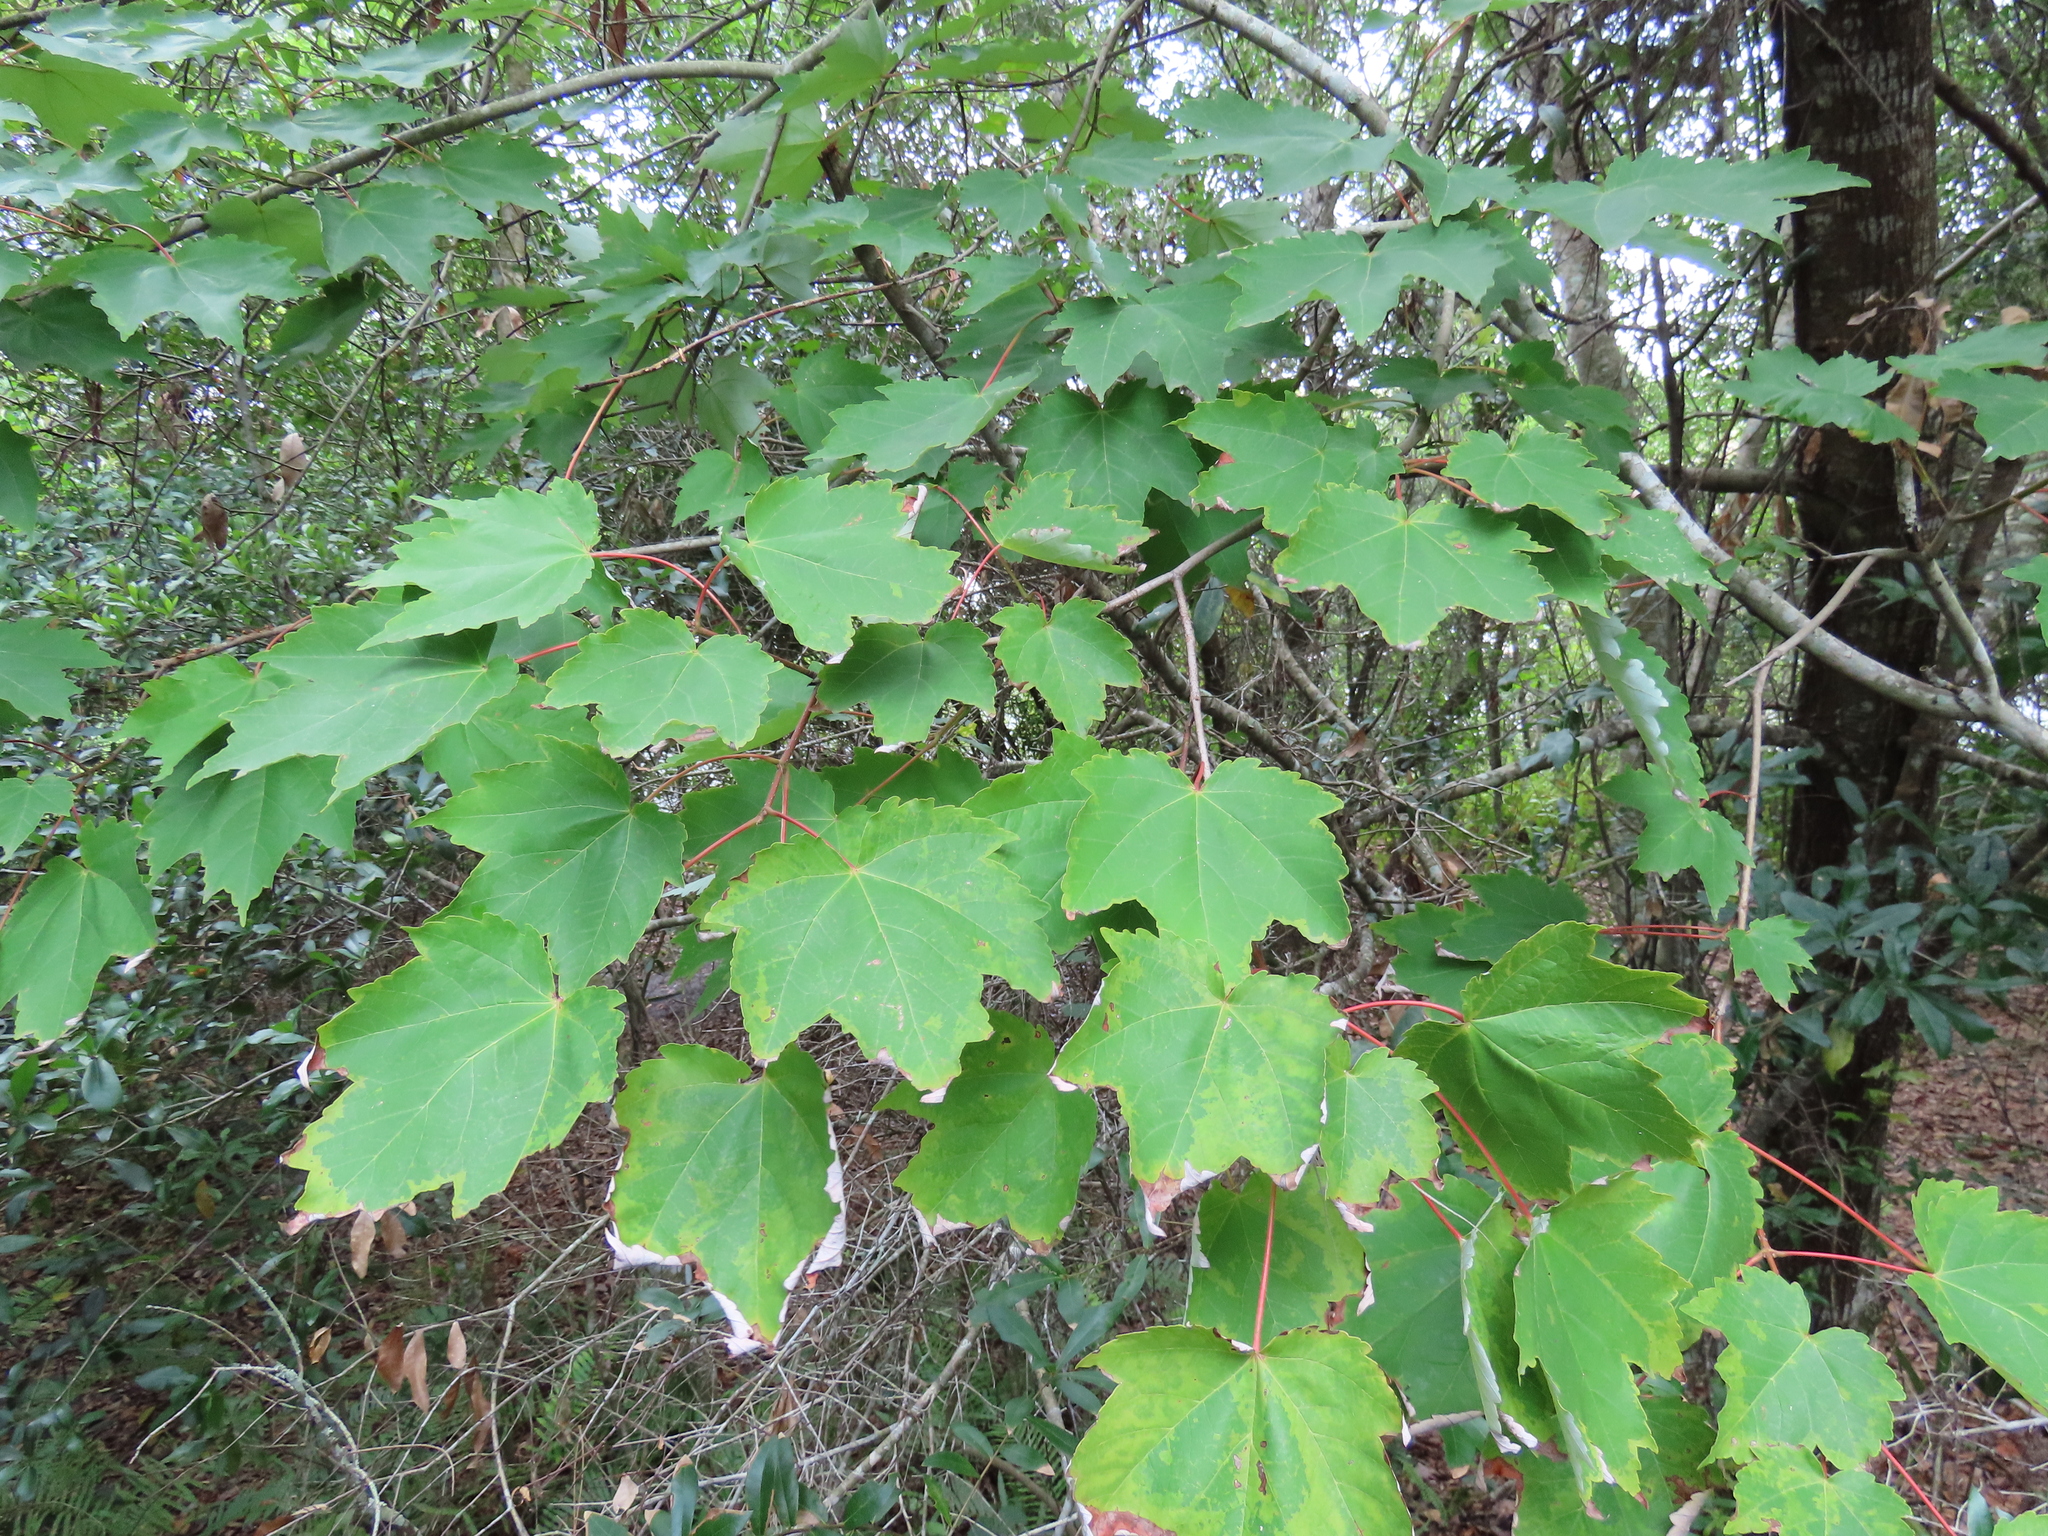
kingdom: Plantae
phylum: Tracheophyta
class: Magnoliopsida
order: Sapindales
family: Sapindaceae
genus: Acer
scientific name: Acer rubrum
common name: Red maple
